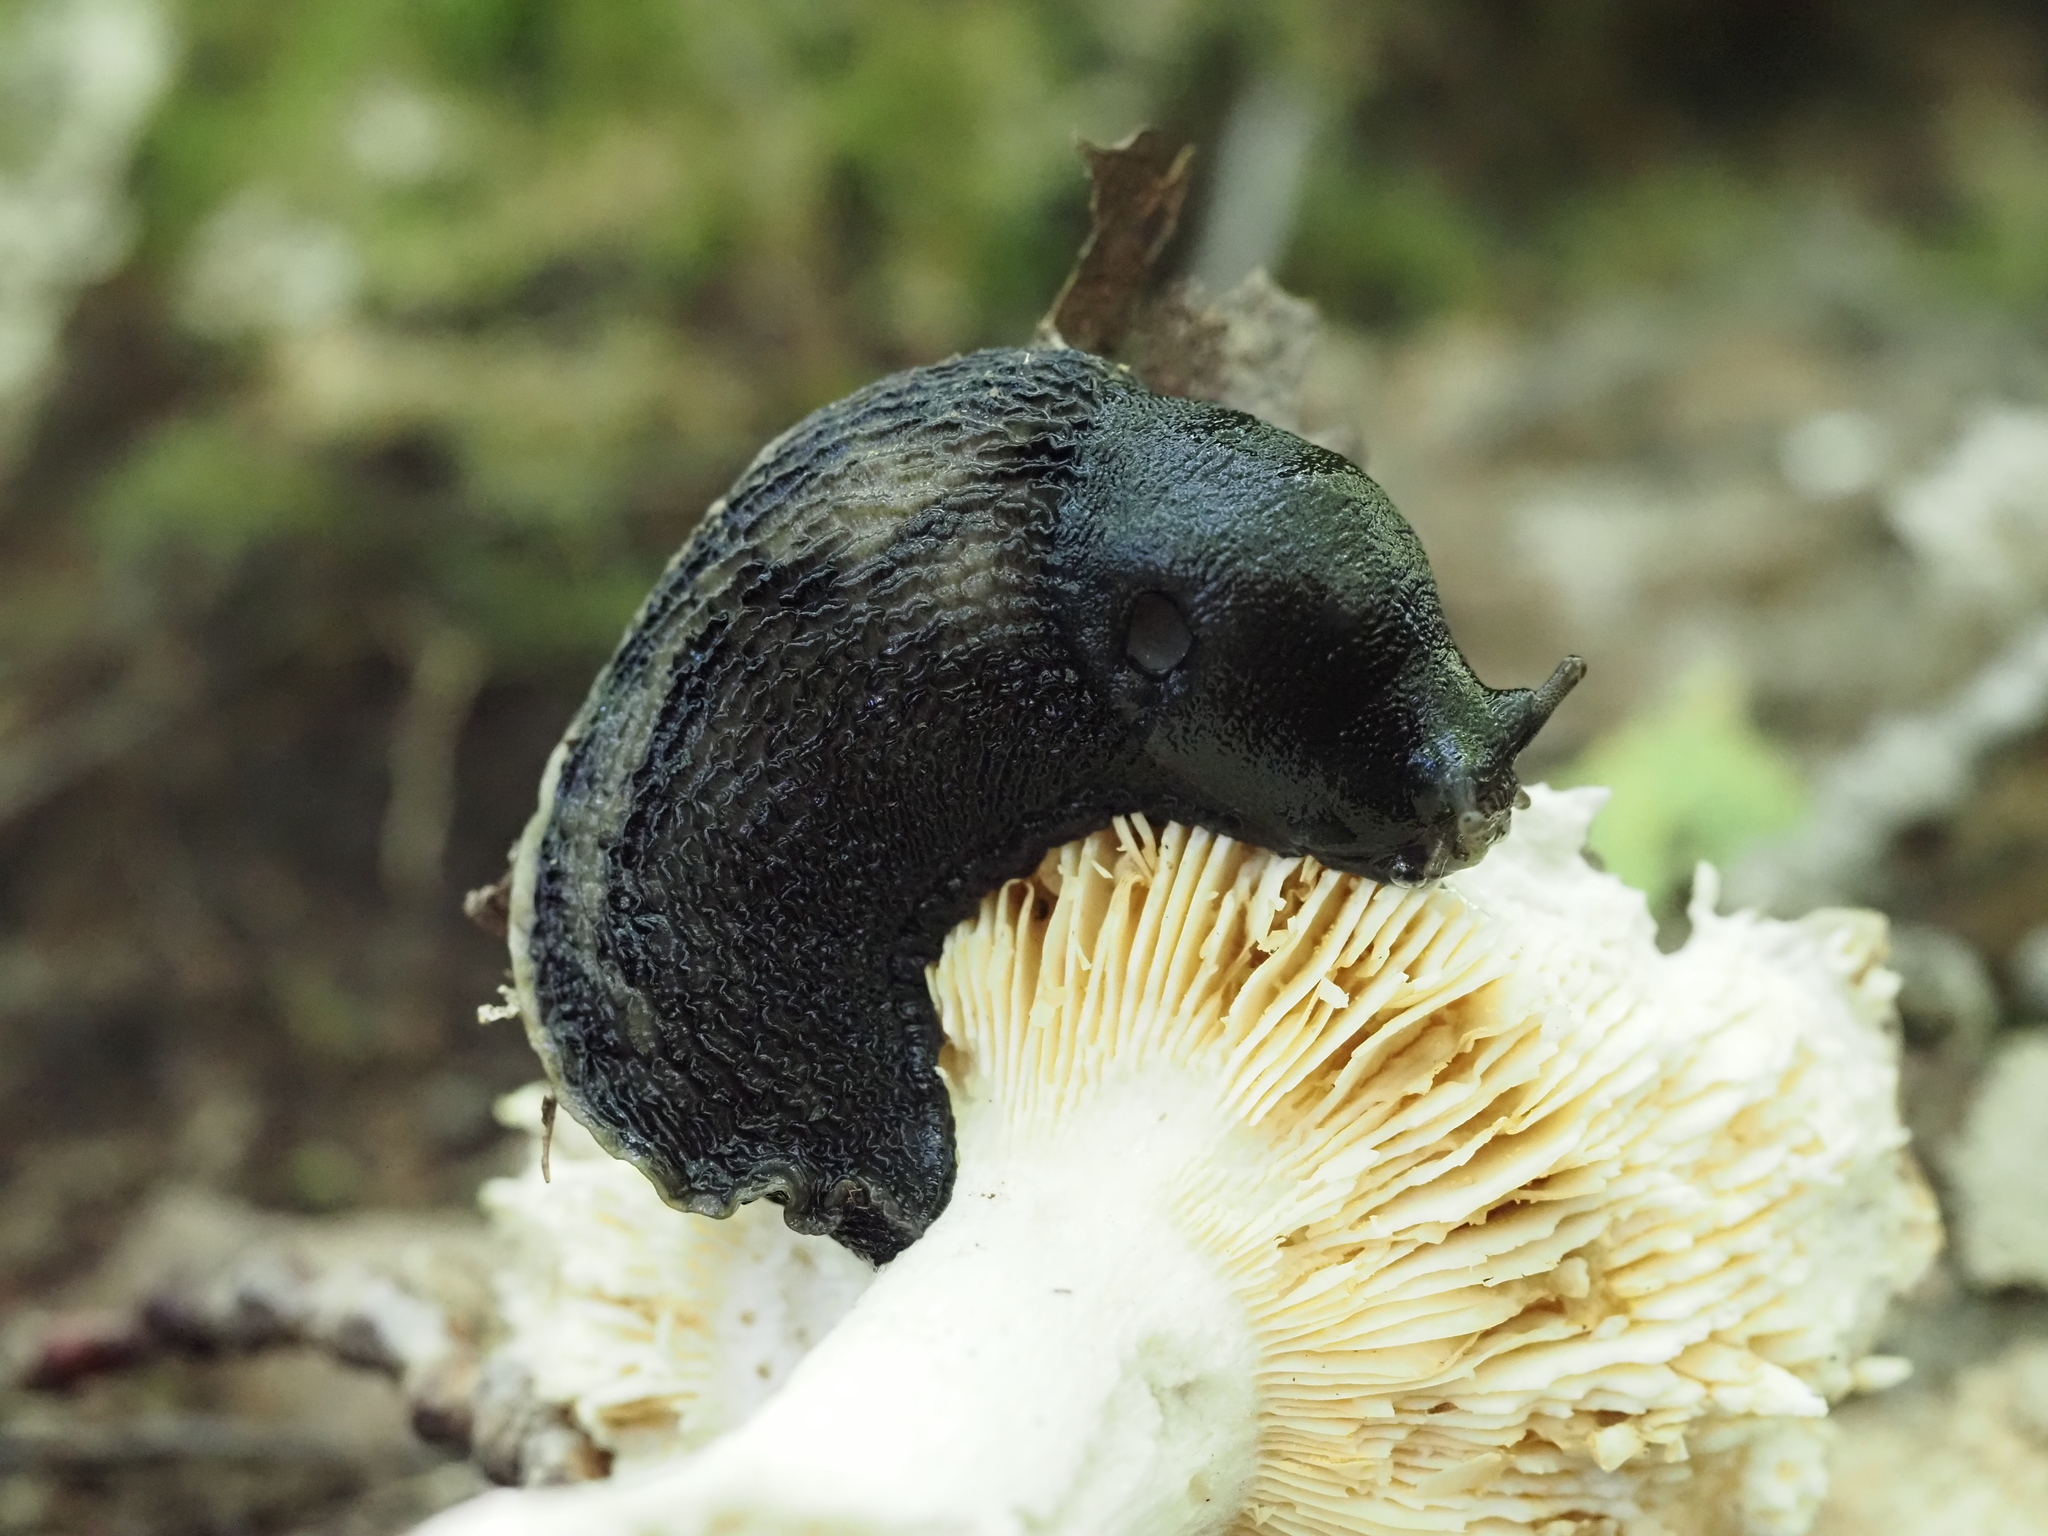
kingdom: Animalia
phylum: Mollusca
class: Gastropoda
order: Stylommatophora
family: Limacidae
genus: Limax
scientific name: Limax cinereoniger
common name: Ash-black slug
